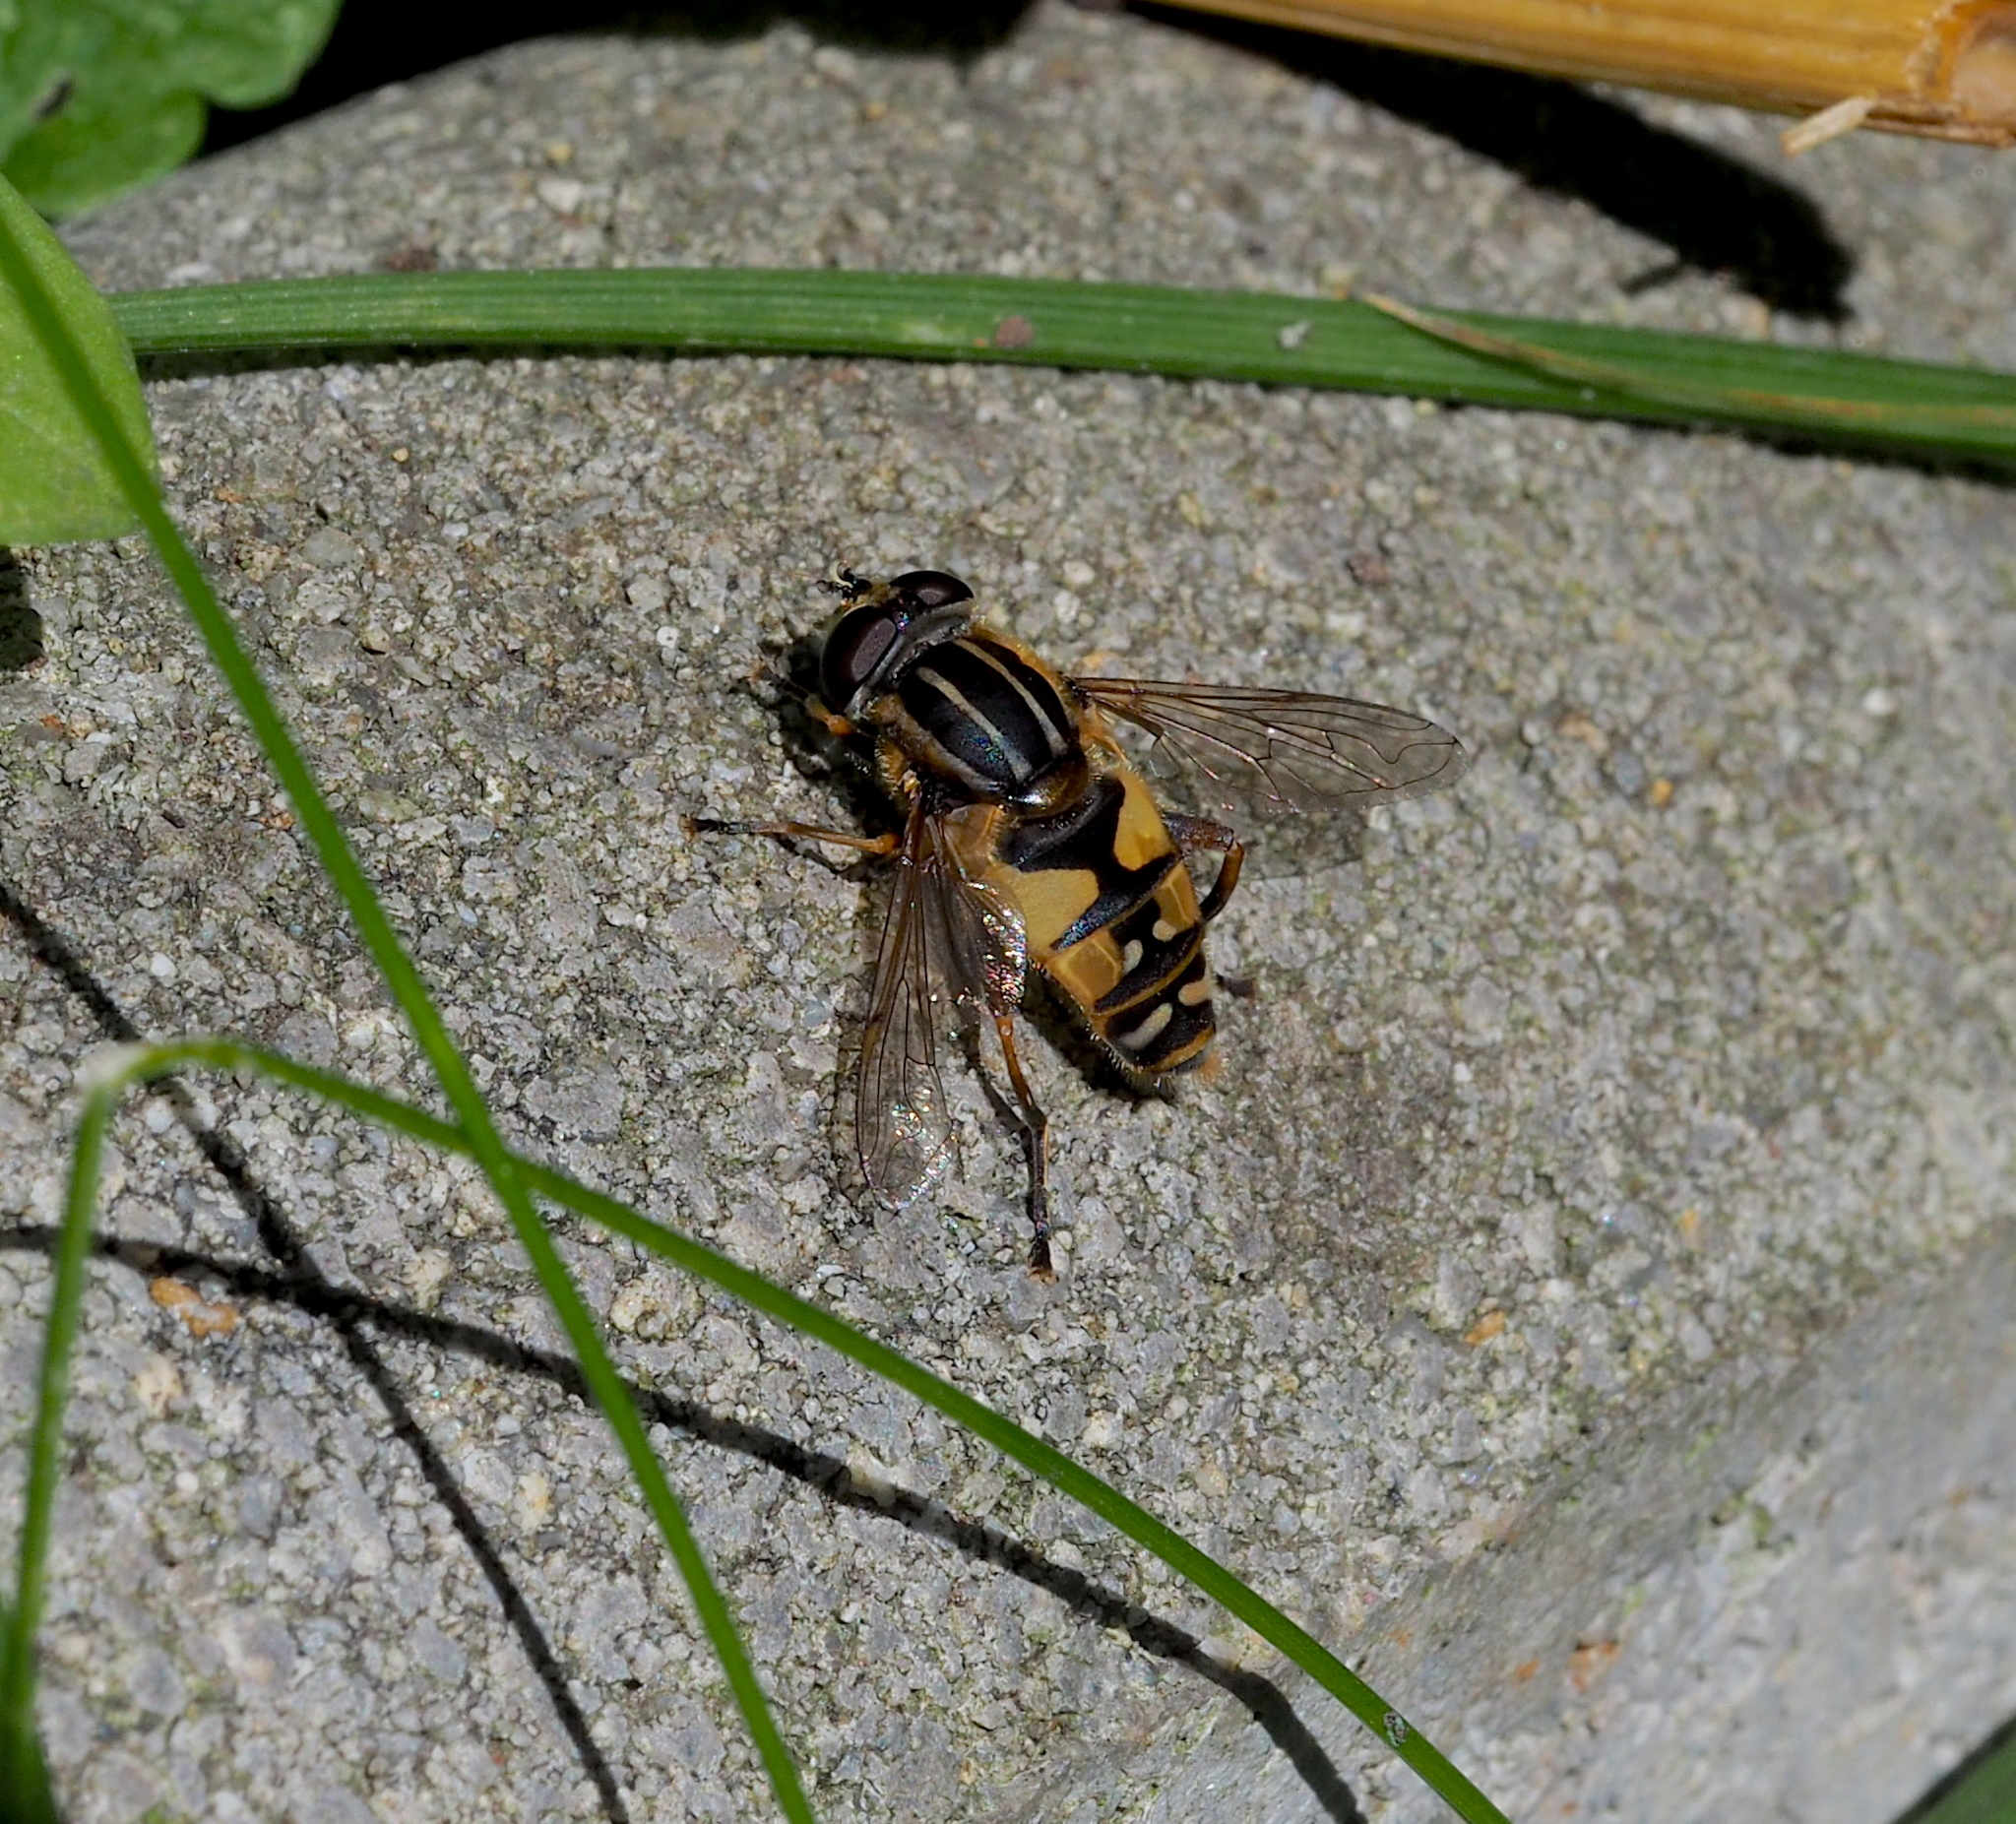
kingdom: Animalia
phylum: Arthropoda
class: Insecta
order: Diptera
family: Syrphidae
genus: Helophilus
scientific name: Helophilus pendulus
